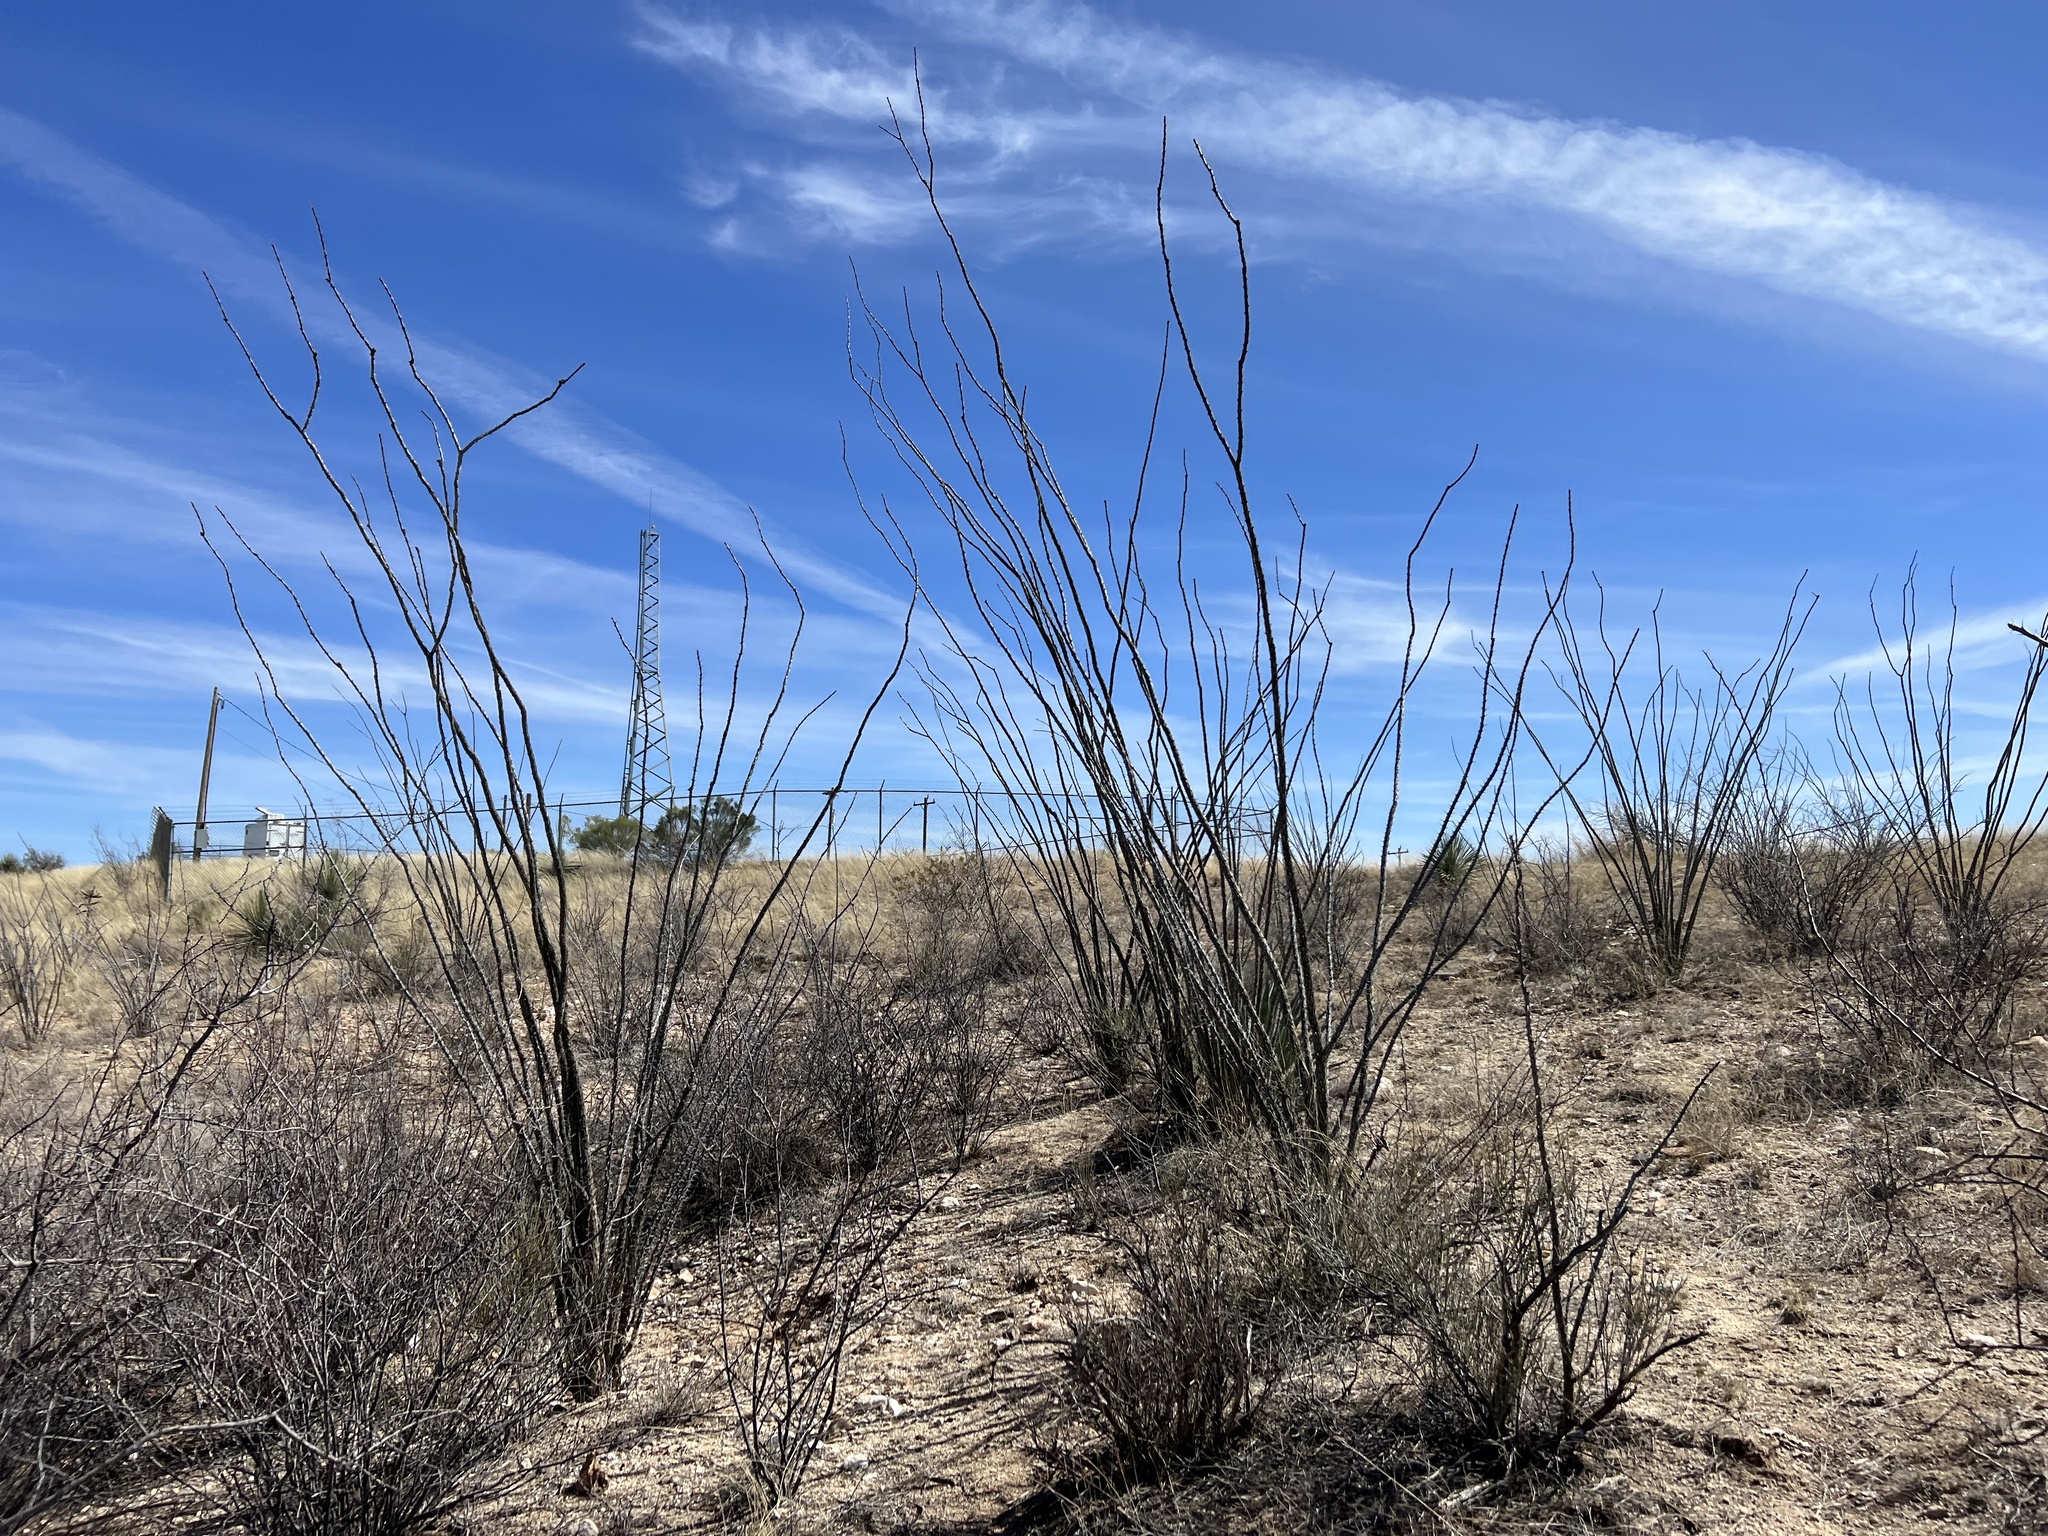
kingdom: Plantae
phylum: Tracheophyta
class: Magnoliopsida
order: Ericales
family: Fouquieriaceae
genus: Fouquieria
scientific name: Fouquieria splendens
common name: Vine-cactus
